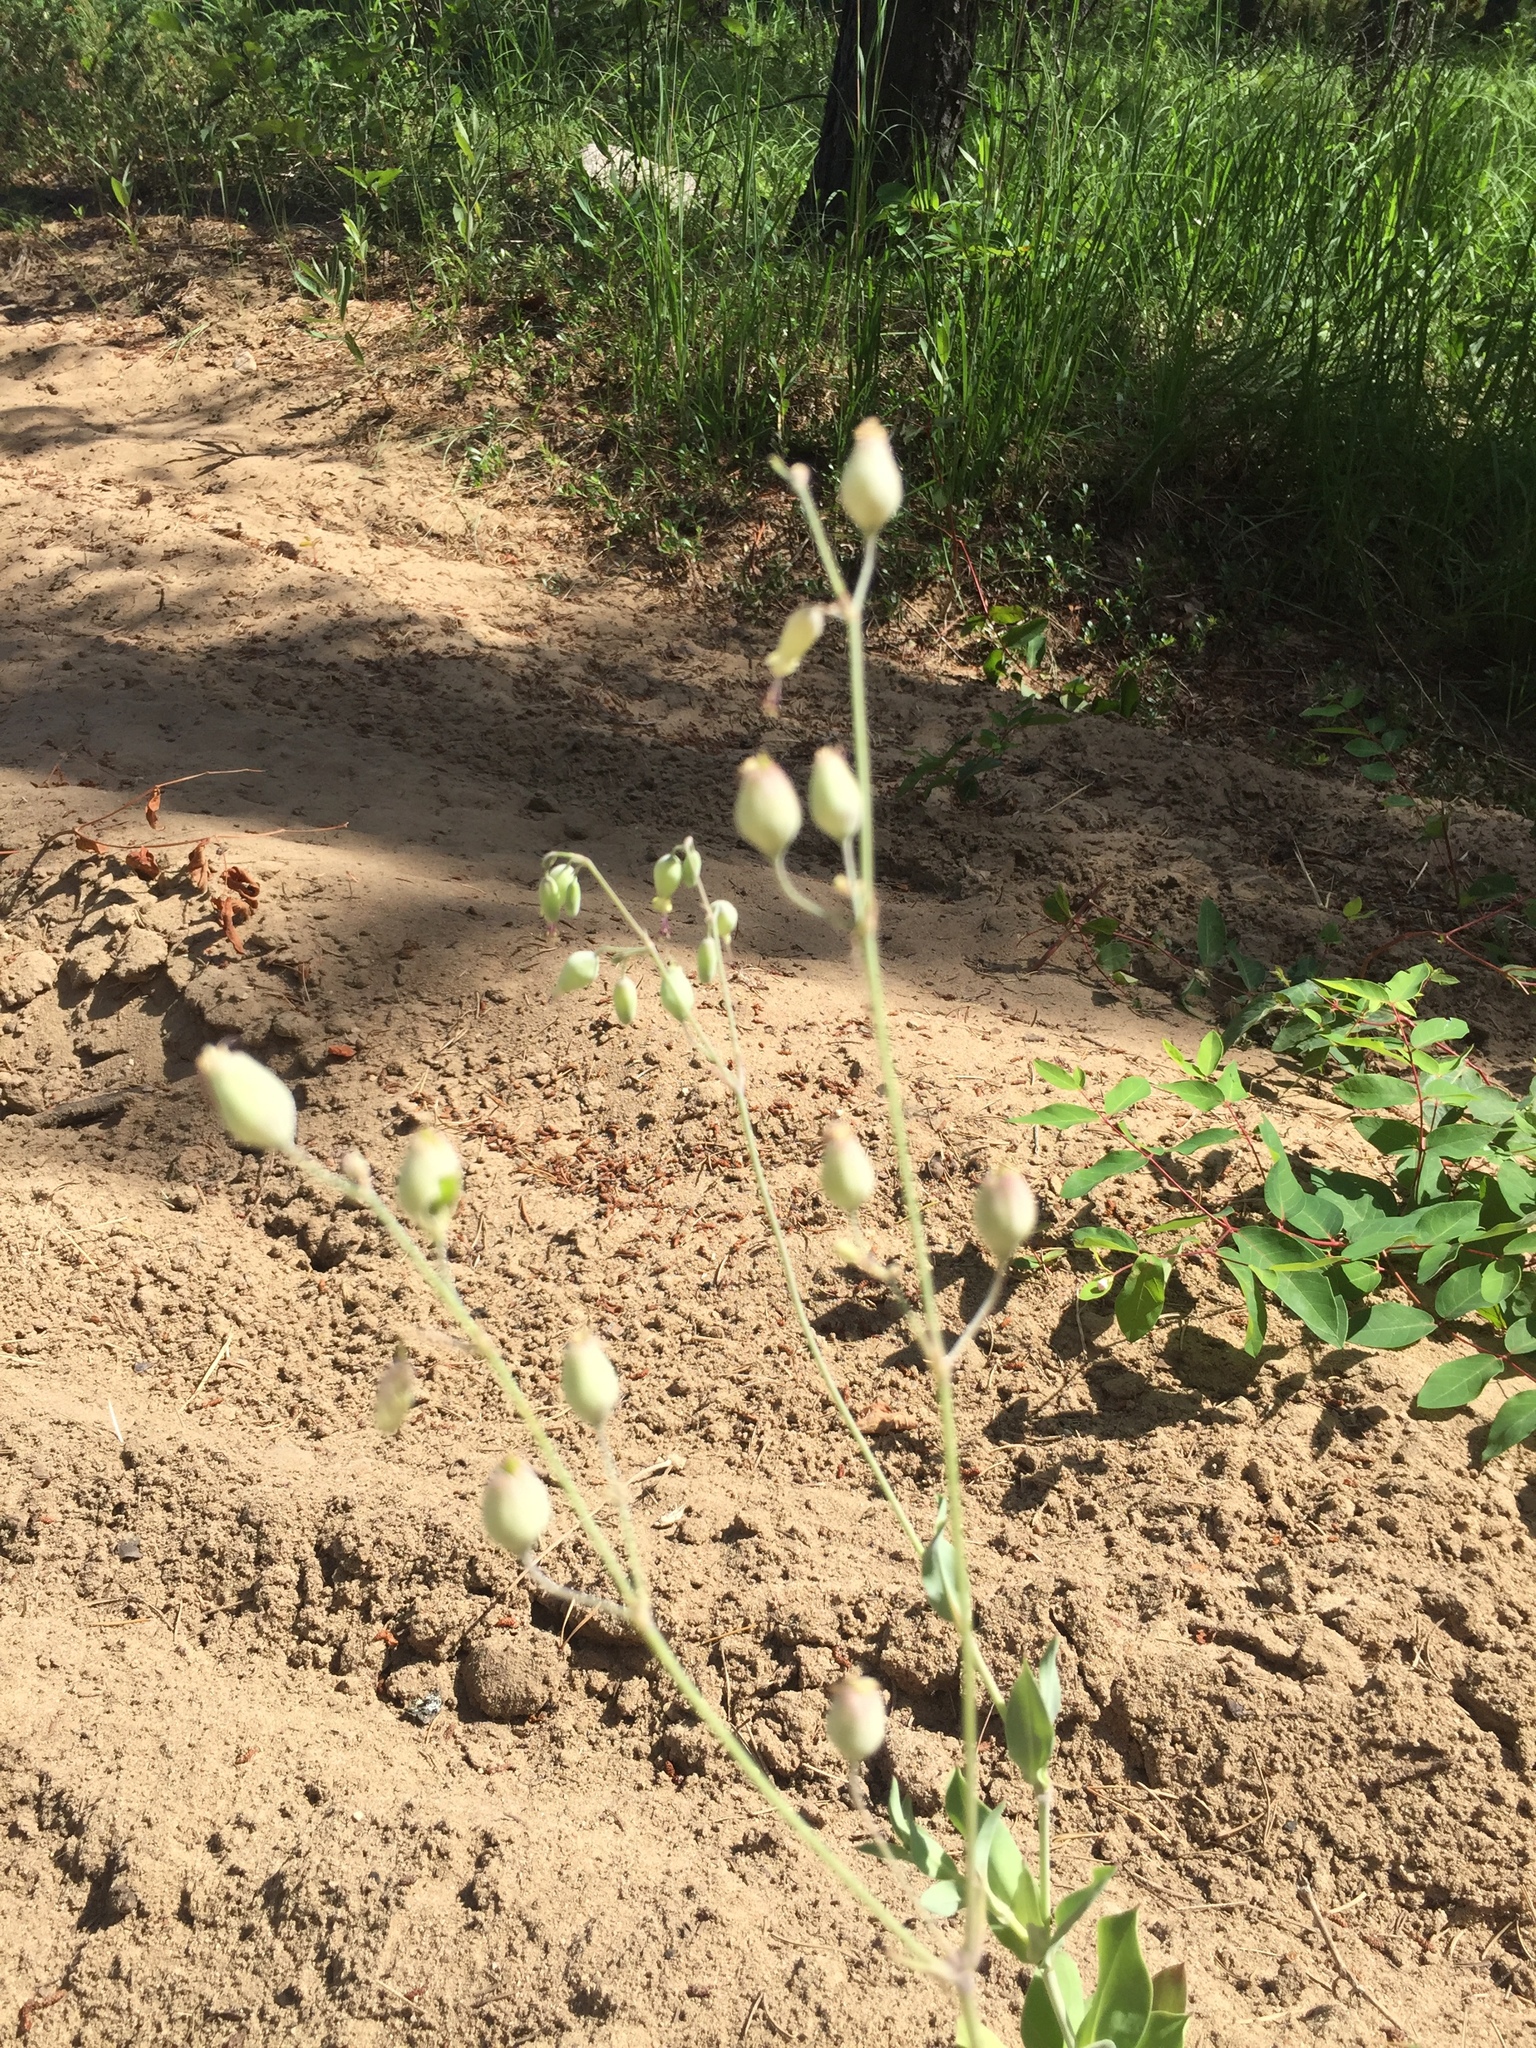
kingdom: Plantae
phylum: Tracheophyta
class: Magnoliopsida
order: Caryophyllales
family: Caryophyllaceae
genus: Silene
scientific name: Silene vulgaris
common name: Bladder campion
